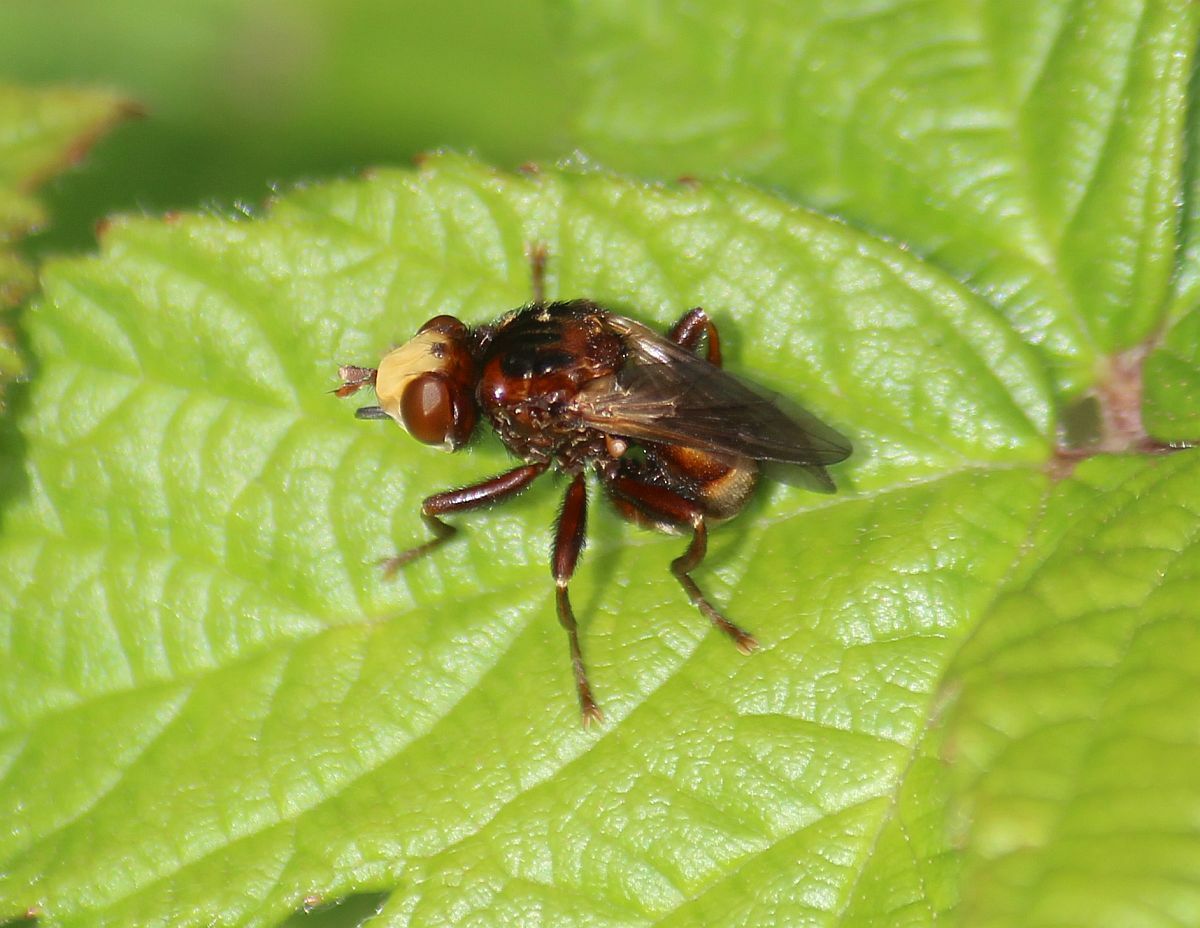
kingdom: Animalia
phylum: Arthropoda
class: Insecta
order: Diptera
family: Conopidae
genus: Sicus
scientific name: Sicus ferrugineus
